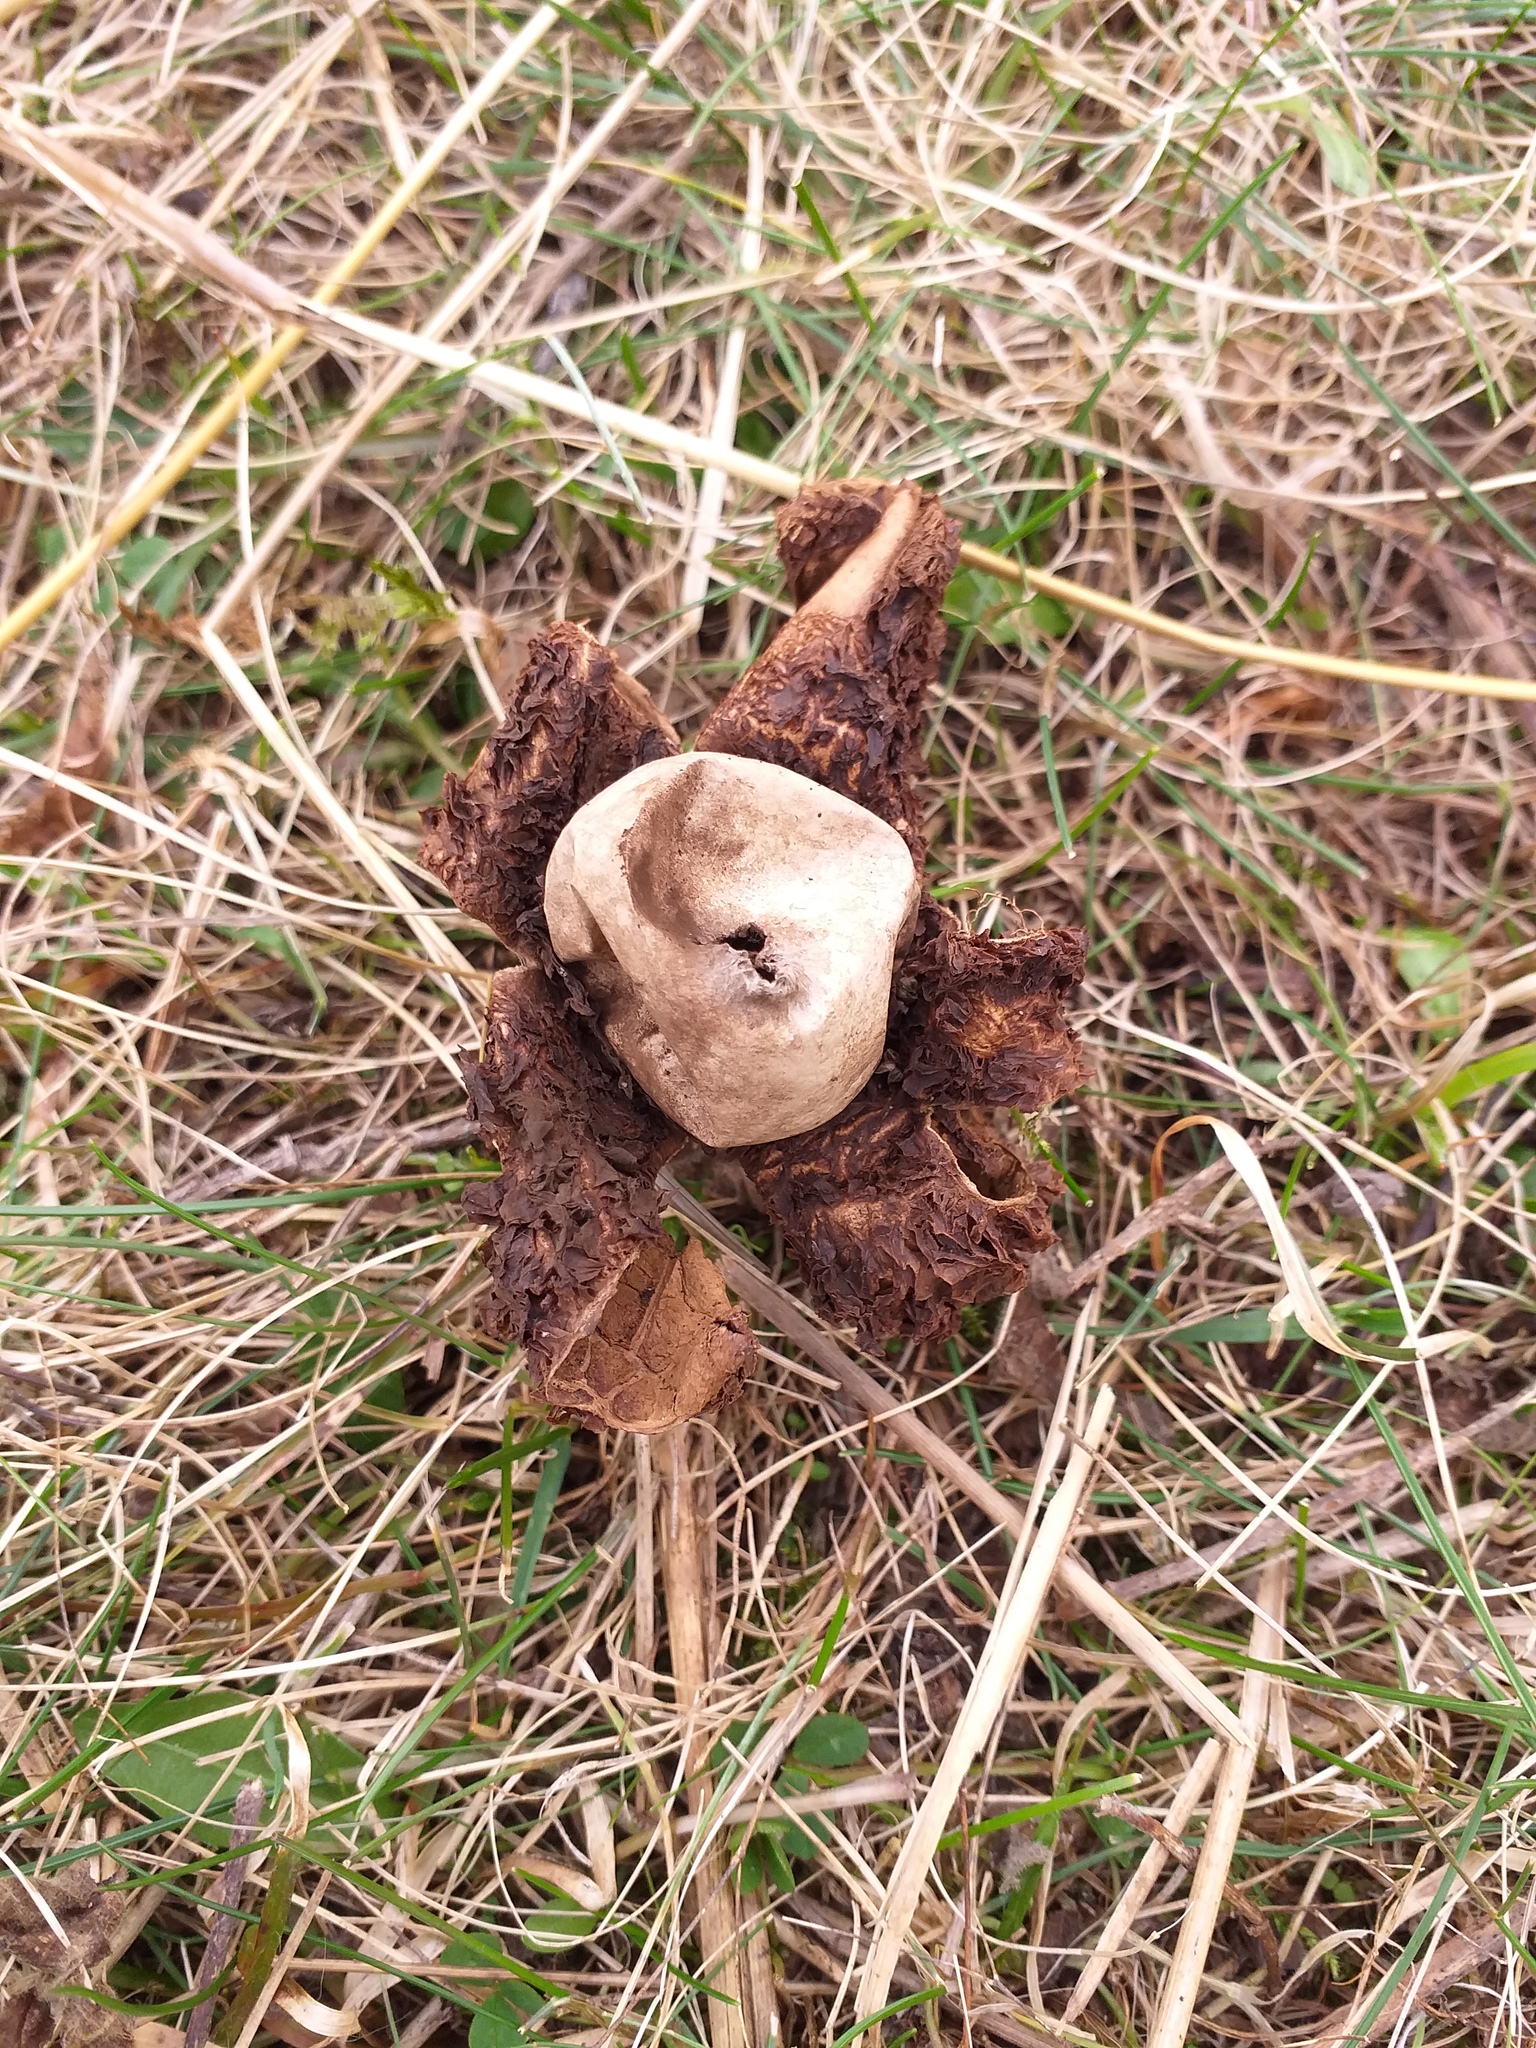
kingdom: Fungi
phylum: Basidiomycota
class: Agaricomycetes
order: Geastrales
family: Geastraceae
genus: Geastrum
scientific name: Geastrum triplex
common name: Collared earthstar
